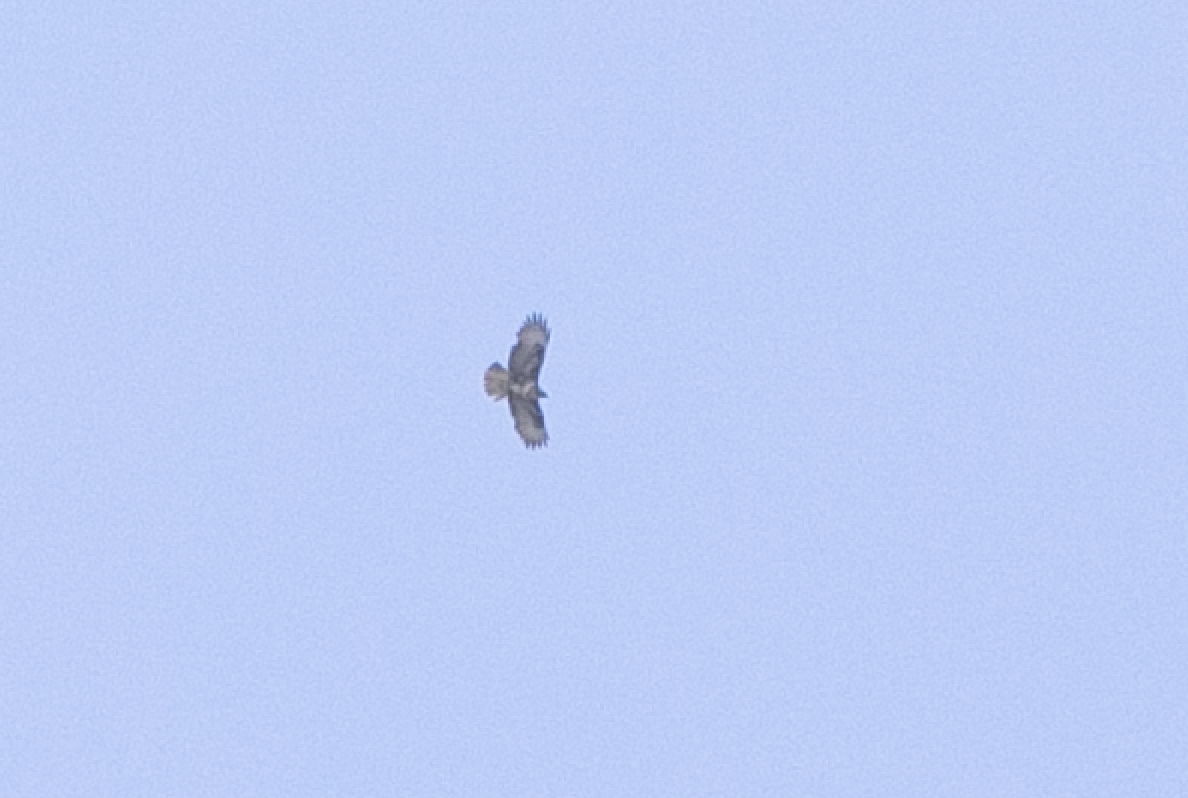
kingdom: Animalia
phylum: Chordata
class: Aves
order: Accipitriformes
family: Accipitridae
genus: Buteo
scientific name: Buteo buteo
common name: Common buzzard
